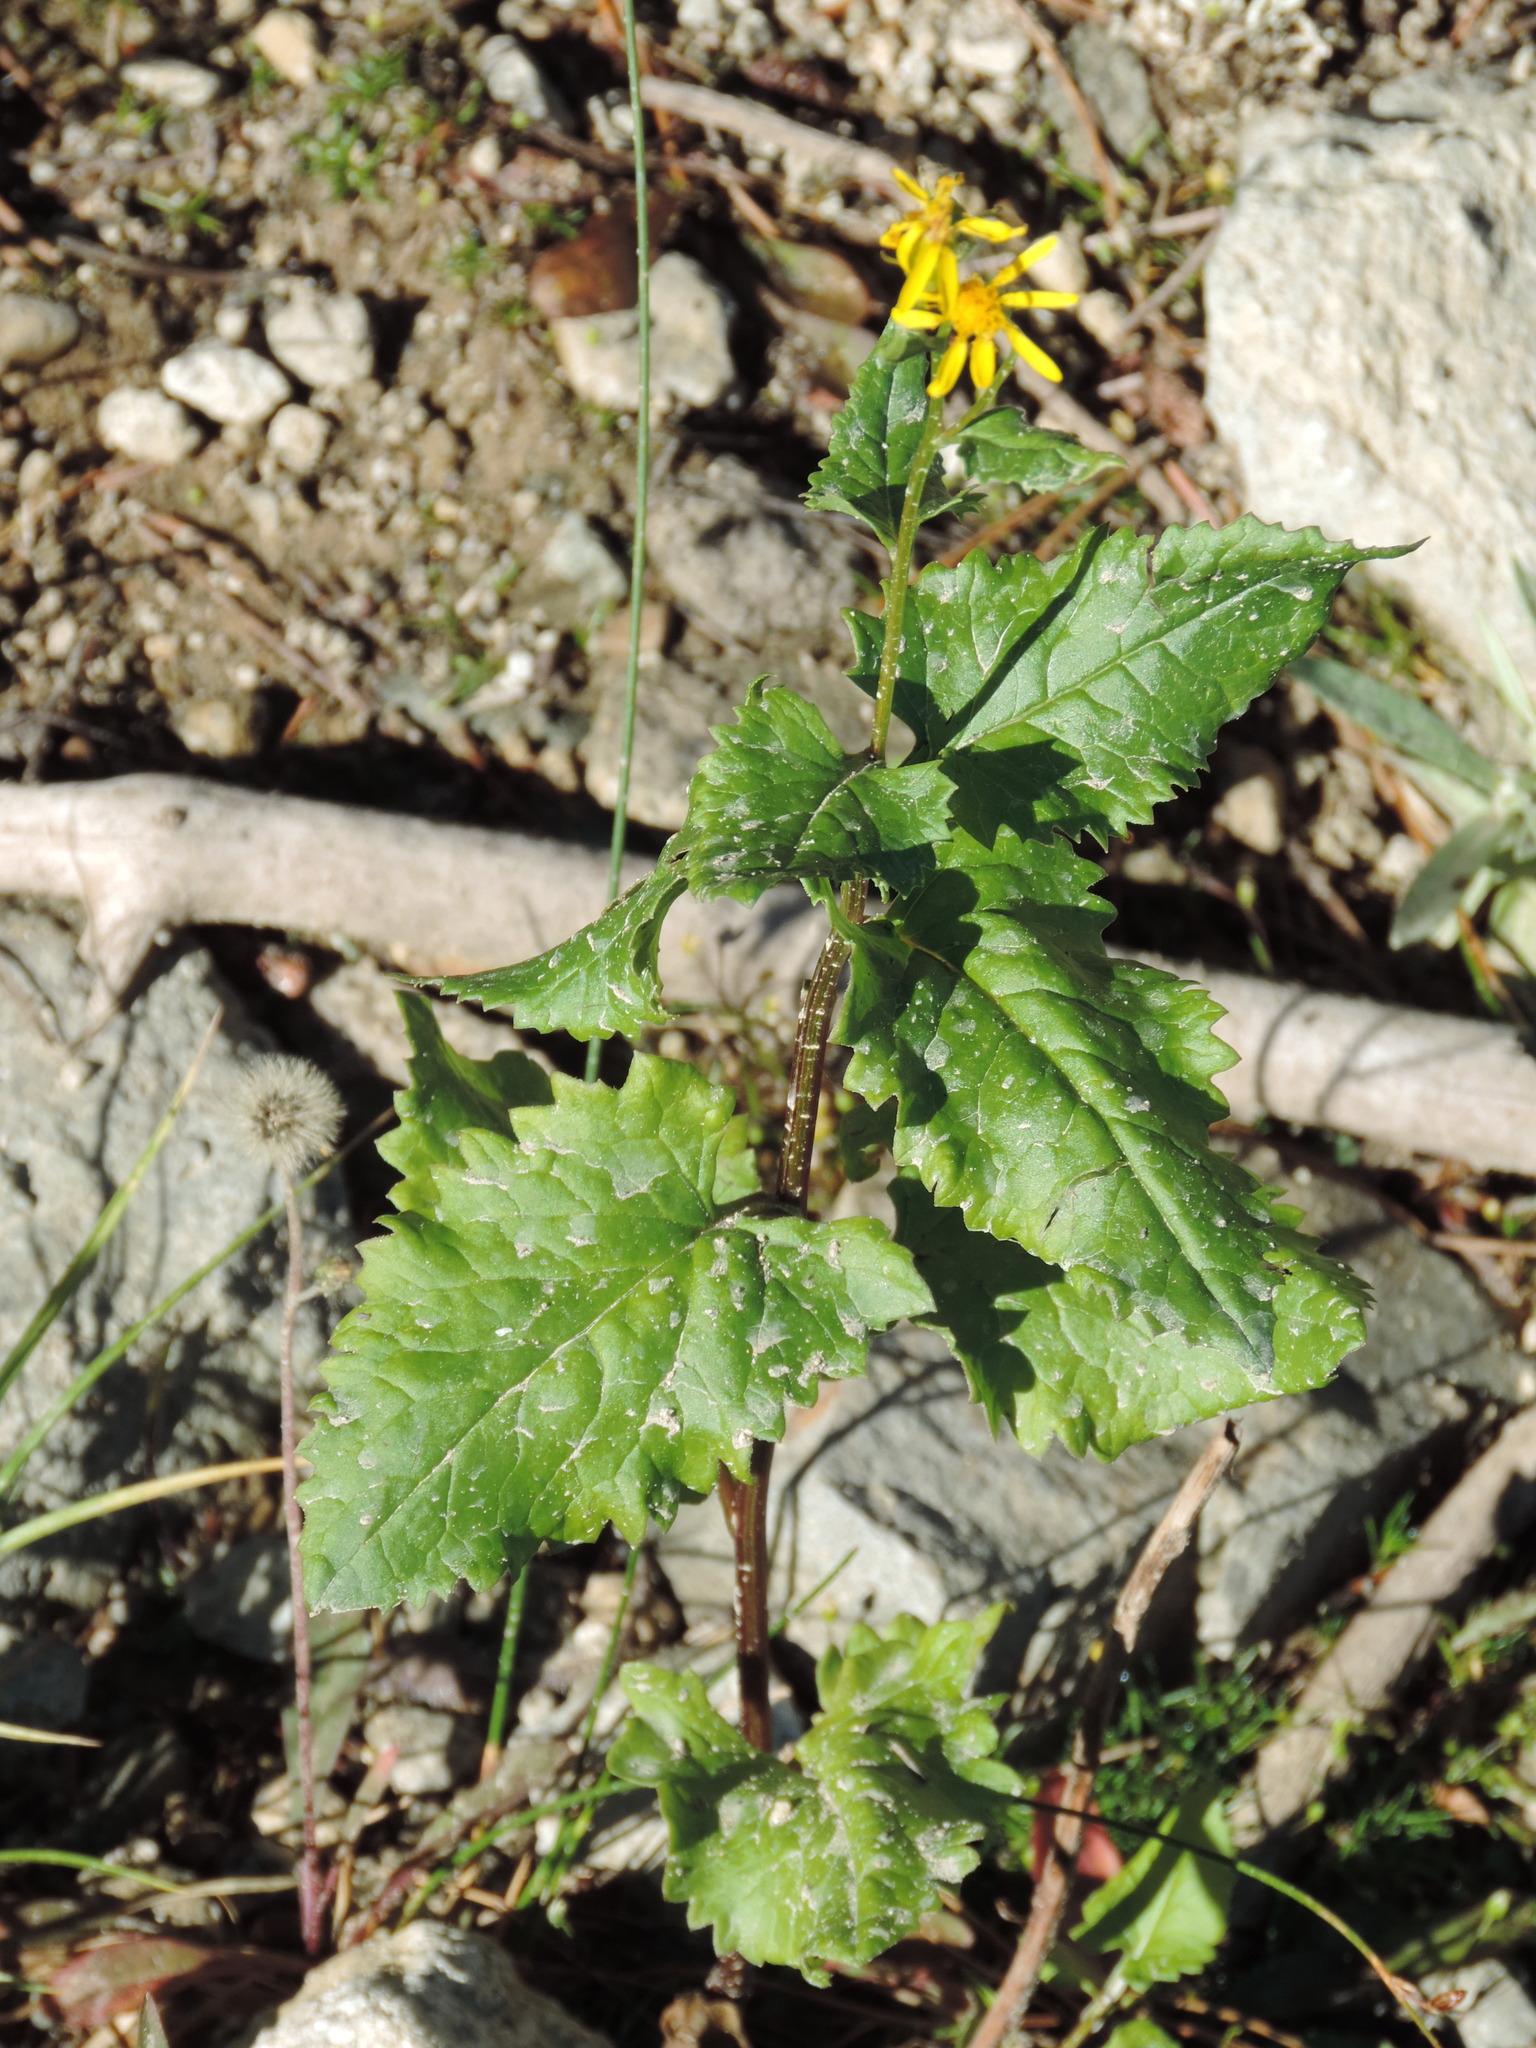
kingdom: Plantae
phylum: Tracheophyta
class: Magnoliopsida
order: Asterales
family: Asteraceae
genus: Senecio
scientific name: Senecio triangularis
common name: Arrowleaf butterweed
